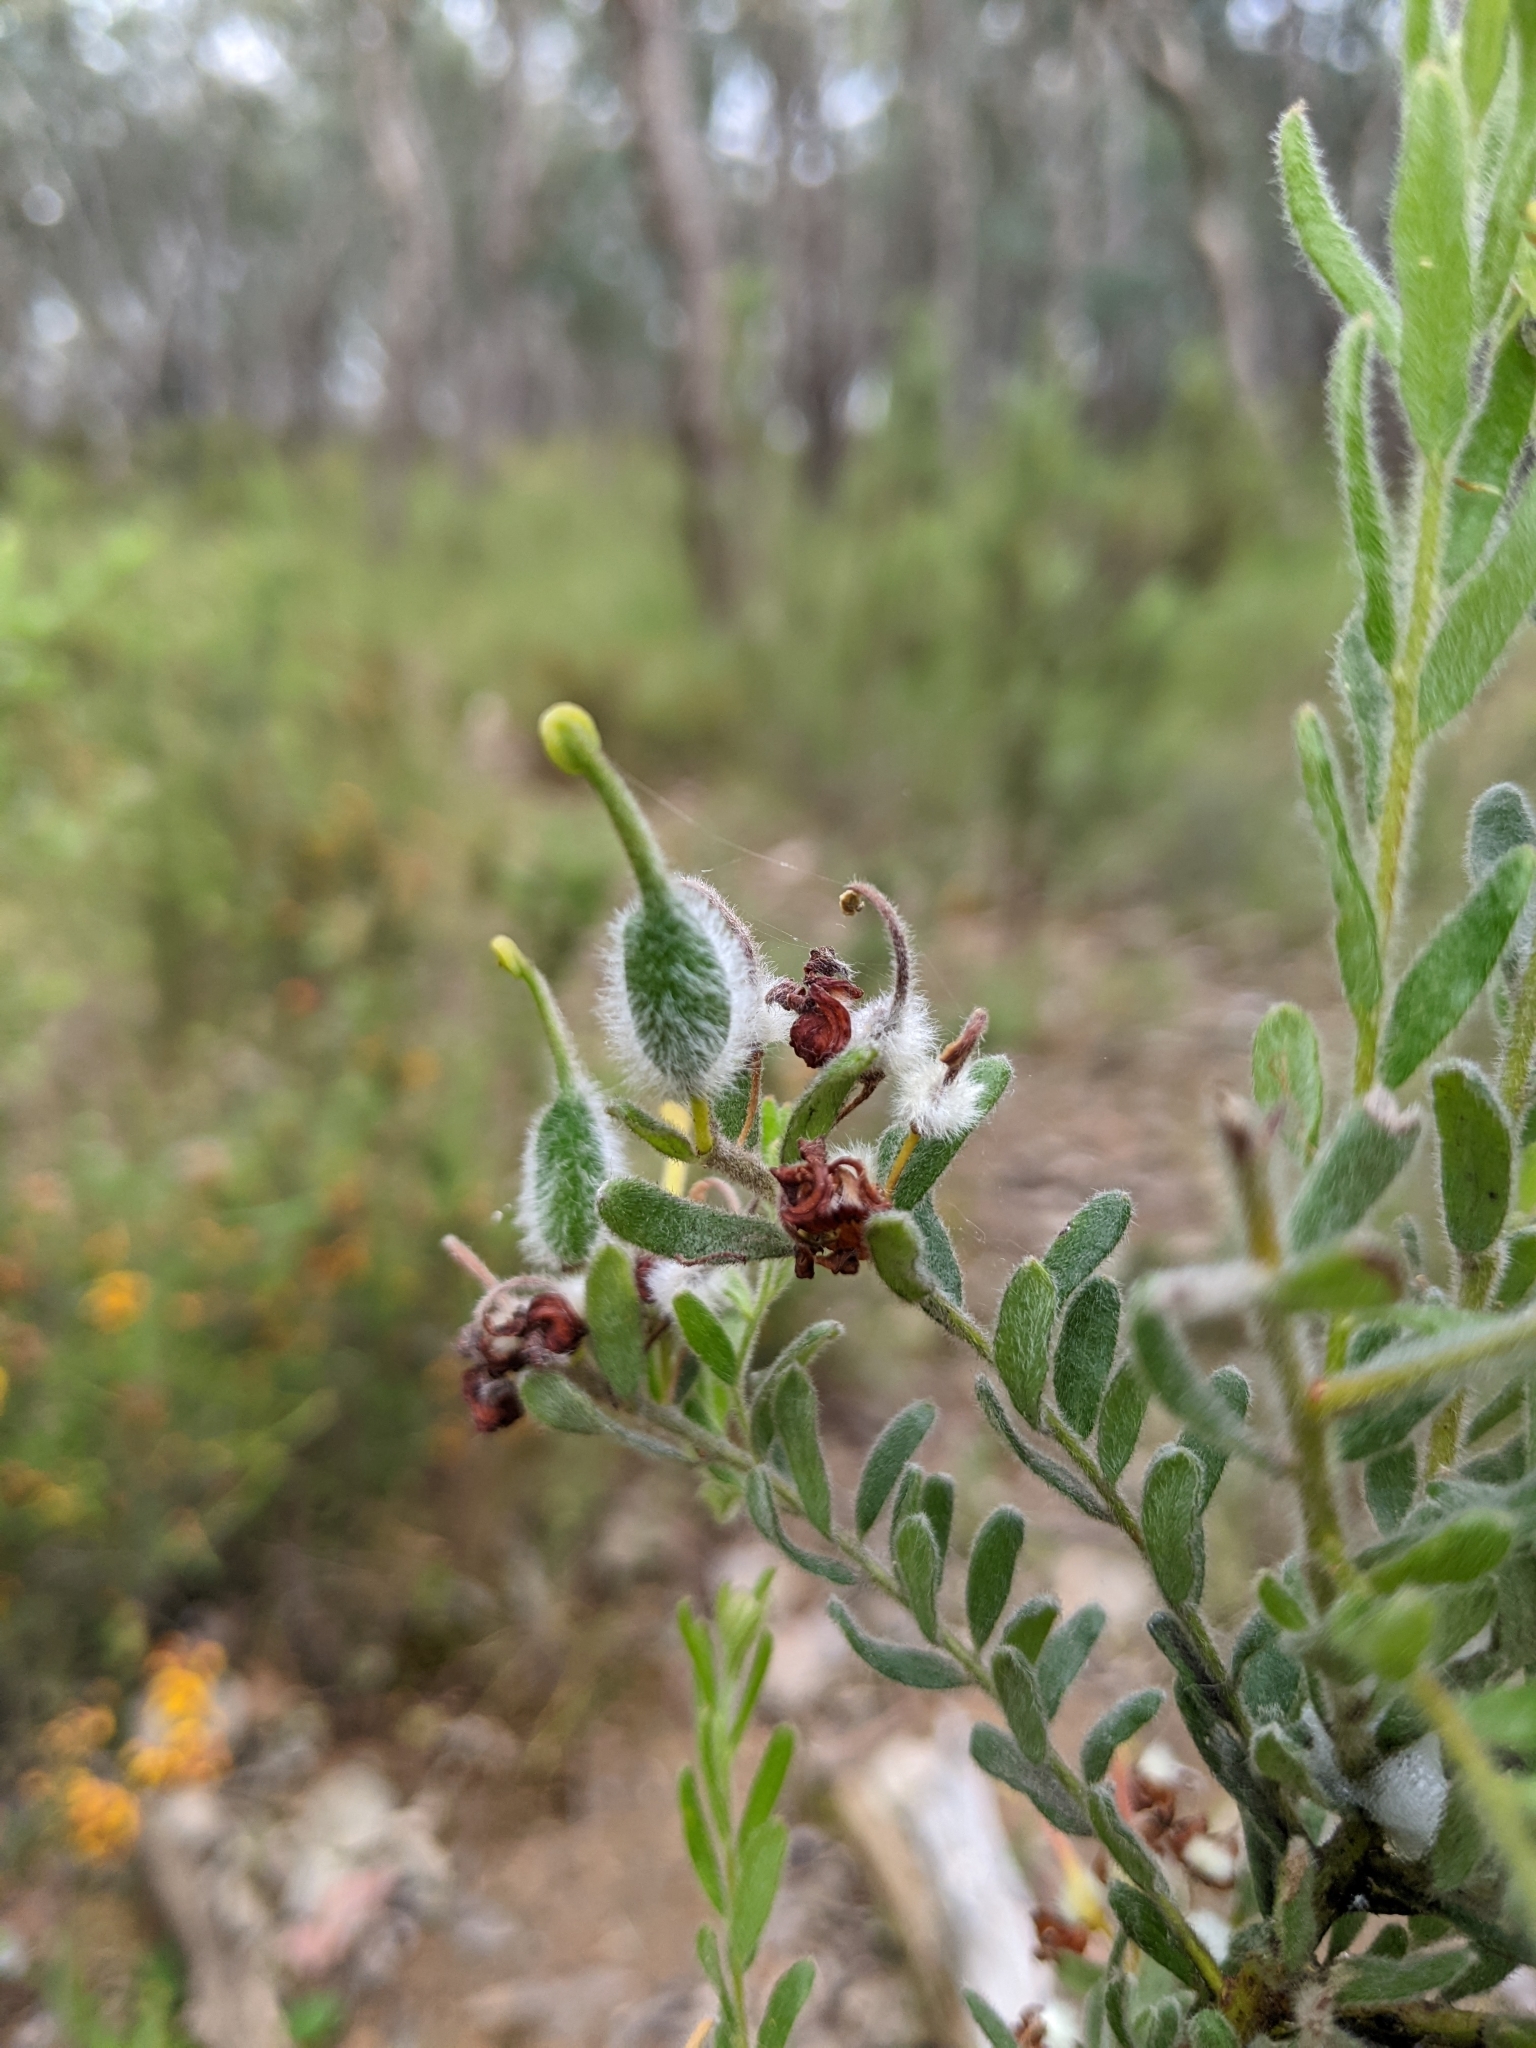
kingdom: Plantae
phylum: Tracheophyta
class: Magnoliopsida
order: Proteales
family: Proteaceae
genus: Grevillea
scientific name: Grevillea alpina
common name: Catclaws grevillea
